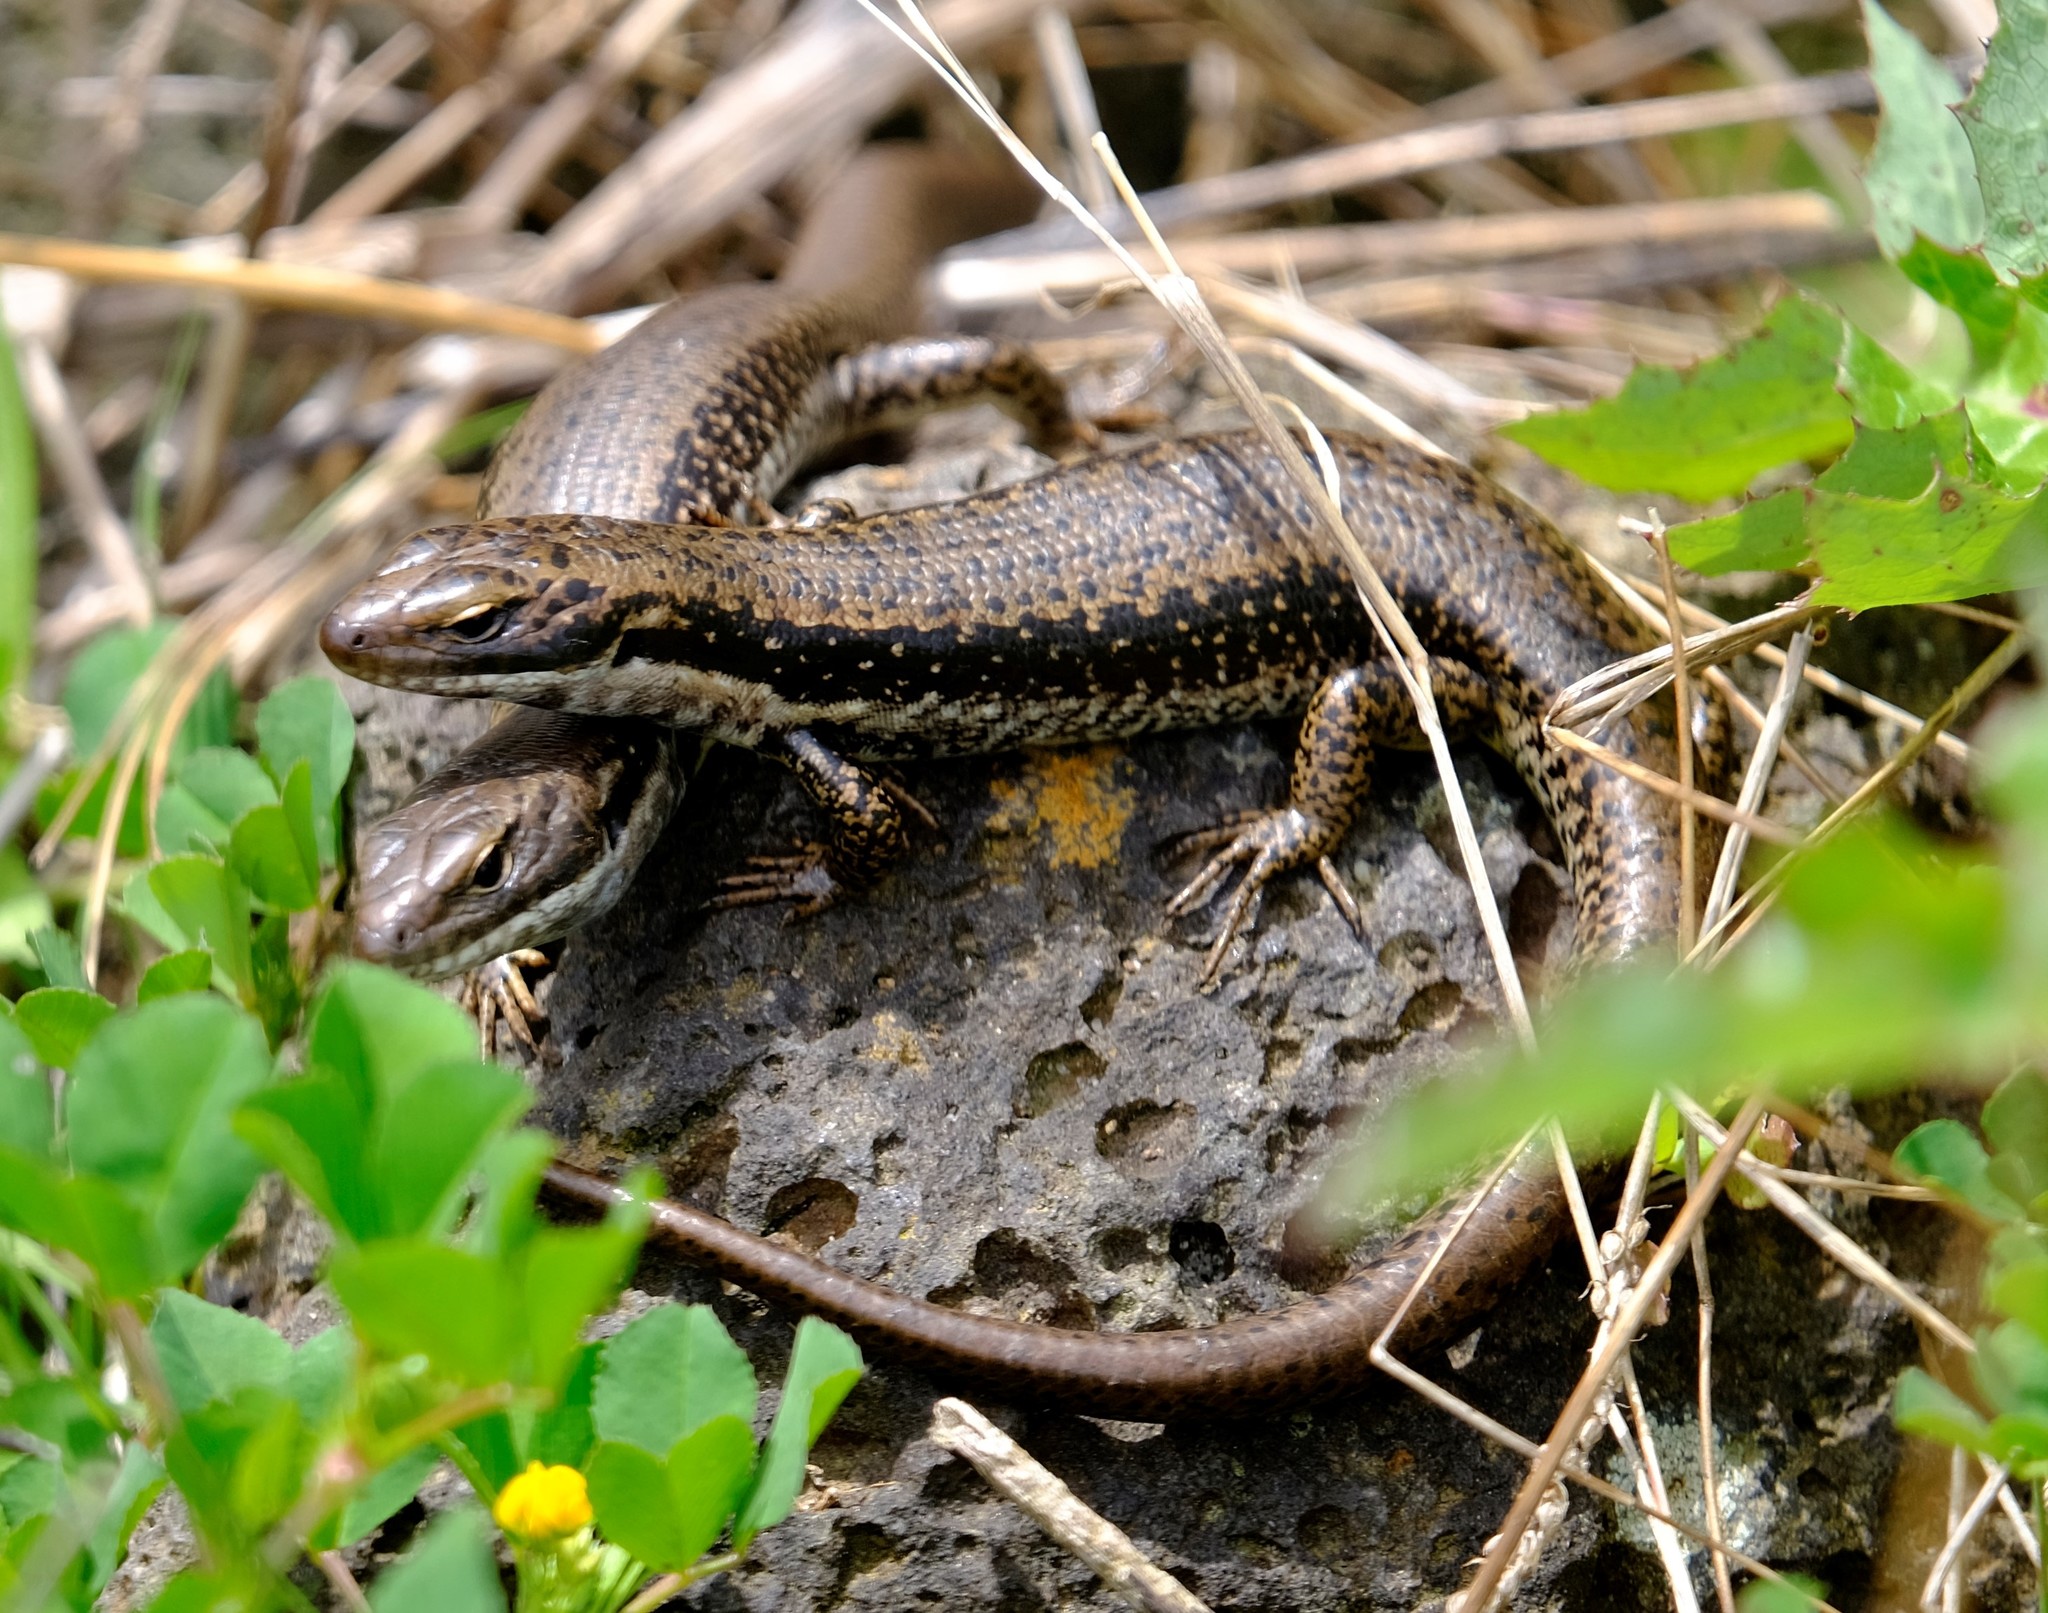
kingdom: Animalia
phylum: Chordata
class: Squamata
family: Scincidae
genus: Eulamprus
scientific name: Eulamprus tympanum
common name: Cool-temperate water-skink
